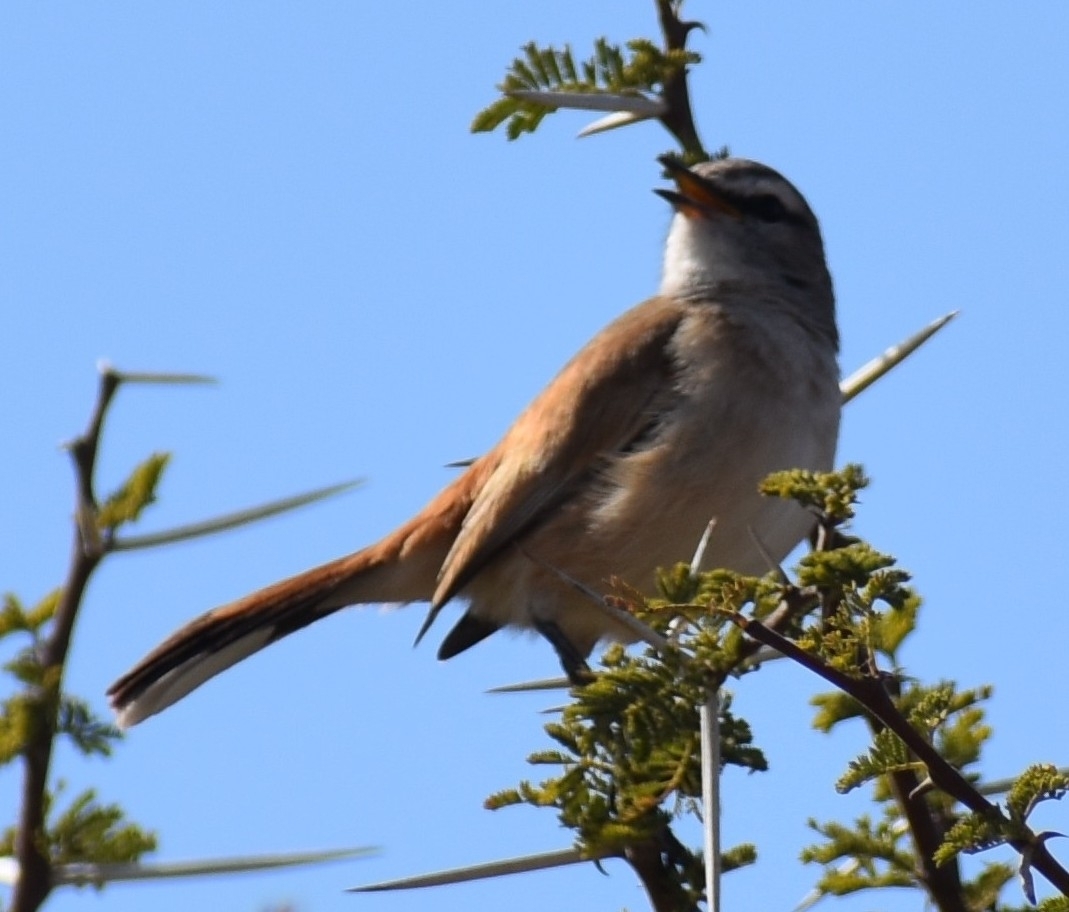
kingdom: Animalia
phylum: Chordata
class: Aves
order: Passeriformes
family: Muscicapidae
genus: Erythropygia
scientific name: Erythropygia paena
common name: Kalahari scrub robin
